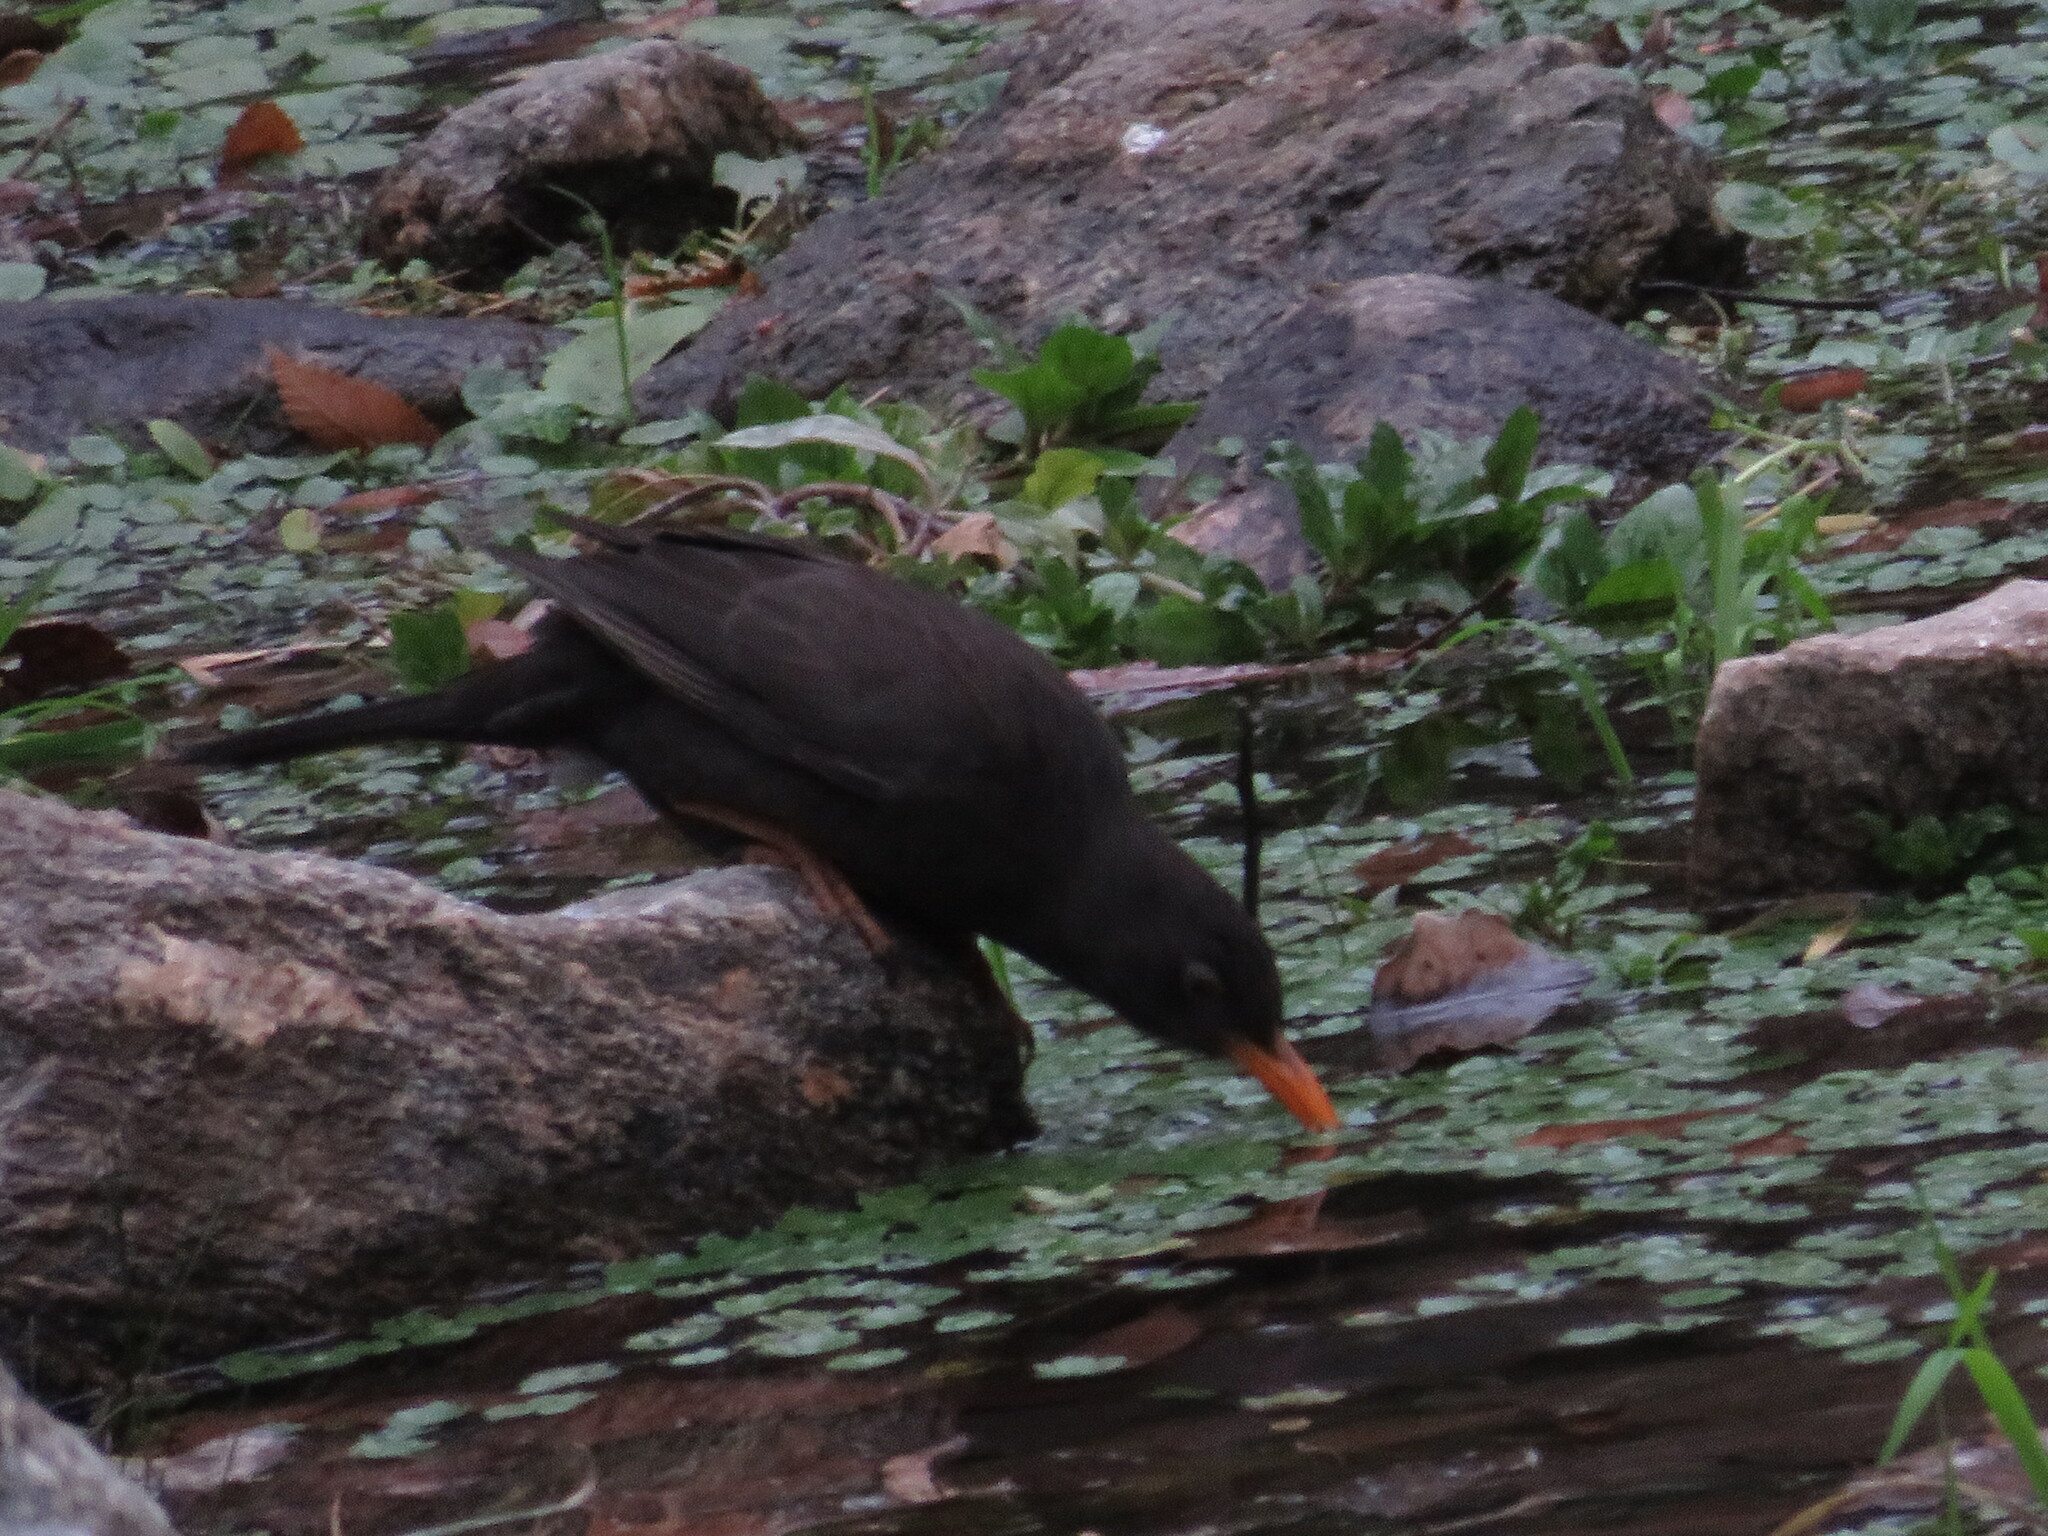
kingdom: Animalia
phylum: Chordata
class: Aves
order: Passeriformes
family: Turdidae
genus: Turdus
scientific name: Turdus chiguanco
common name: Chiguanco thrush
